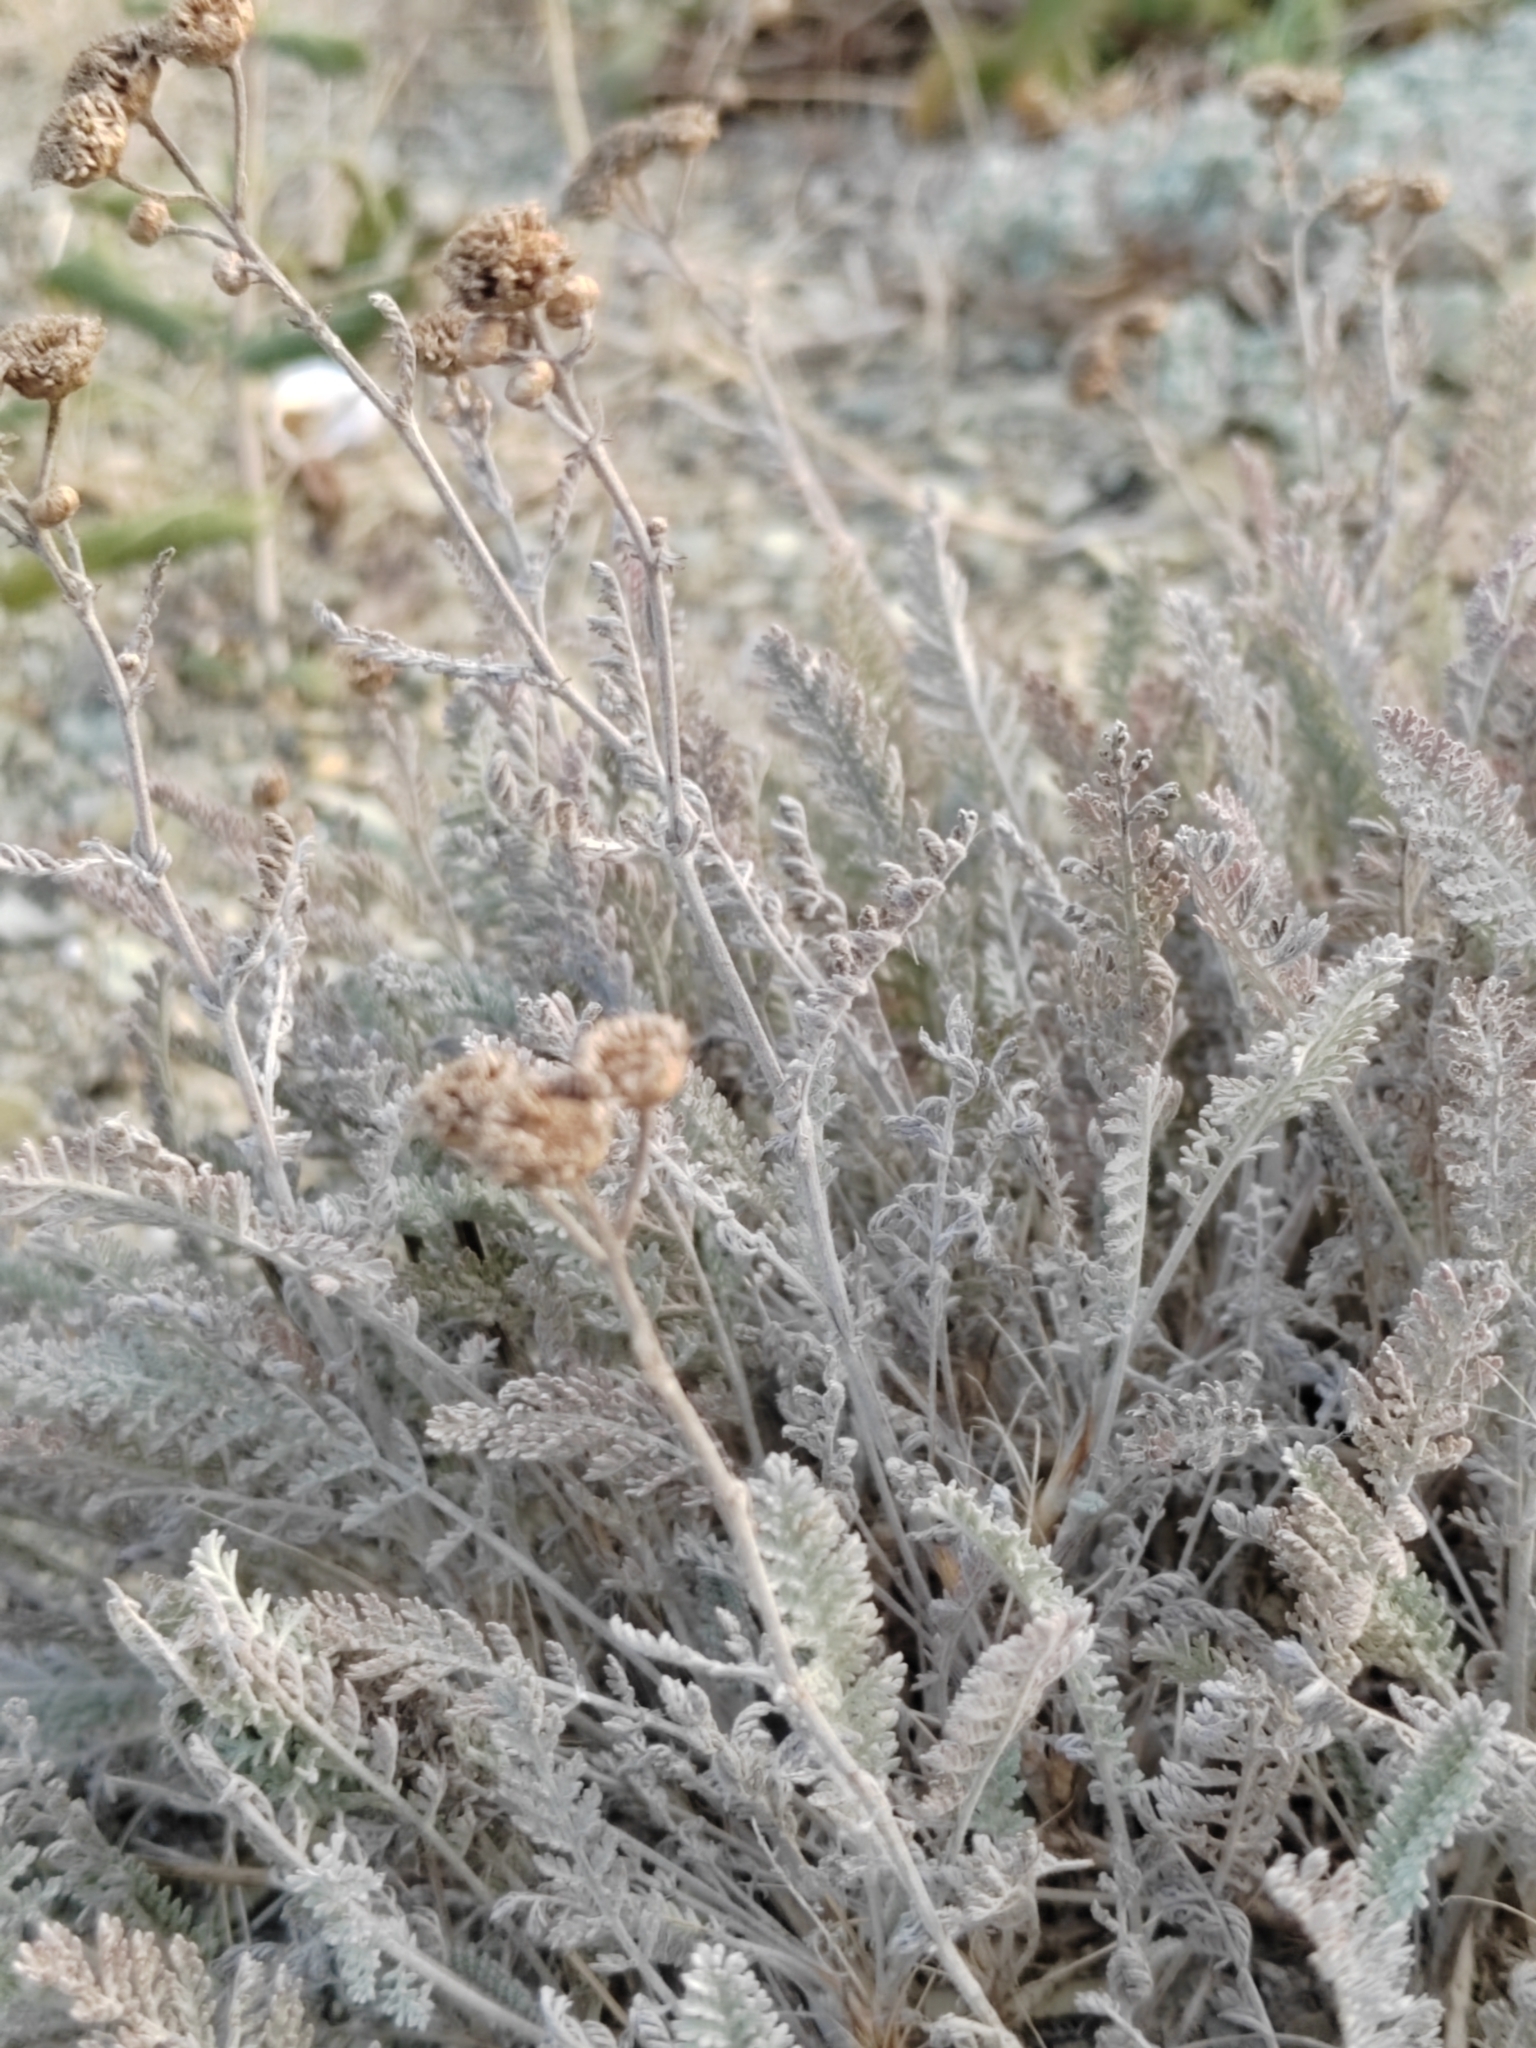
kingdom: Plantae
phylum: Tracheophyta
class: Magnoliopsida
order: Asterales
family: Asteraceae
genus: Tanacetum
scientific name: Tanacetum achilleifolium
